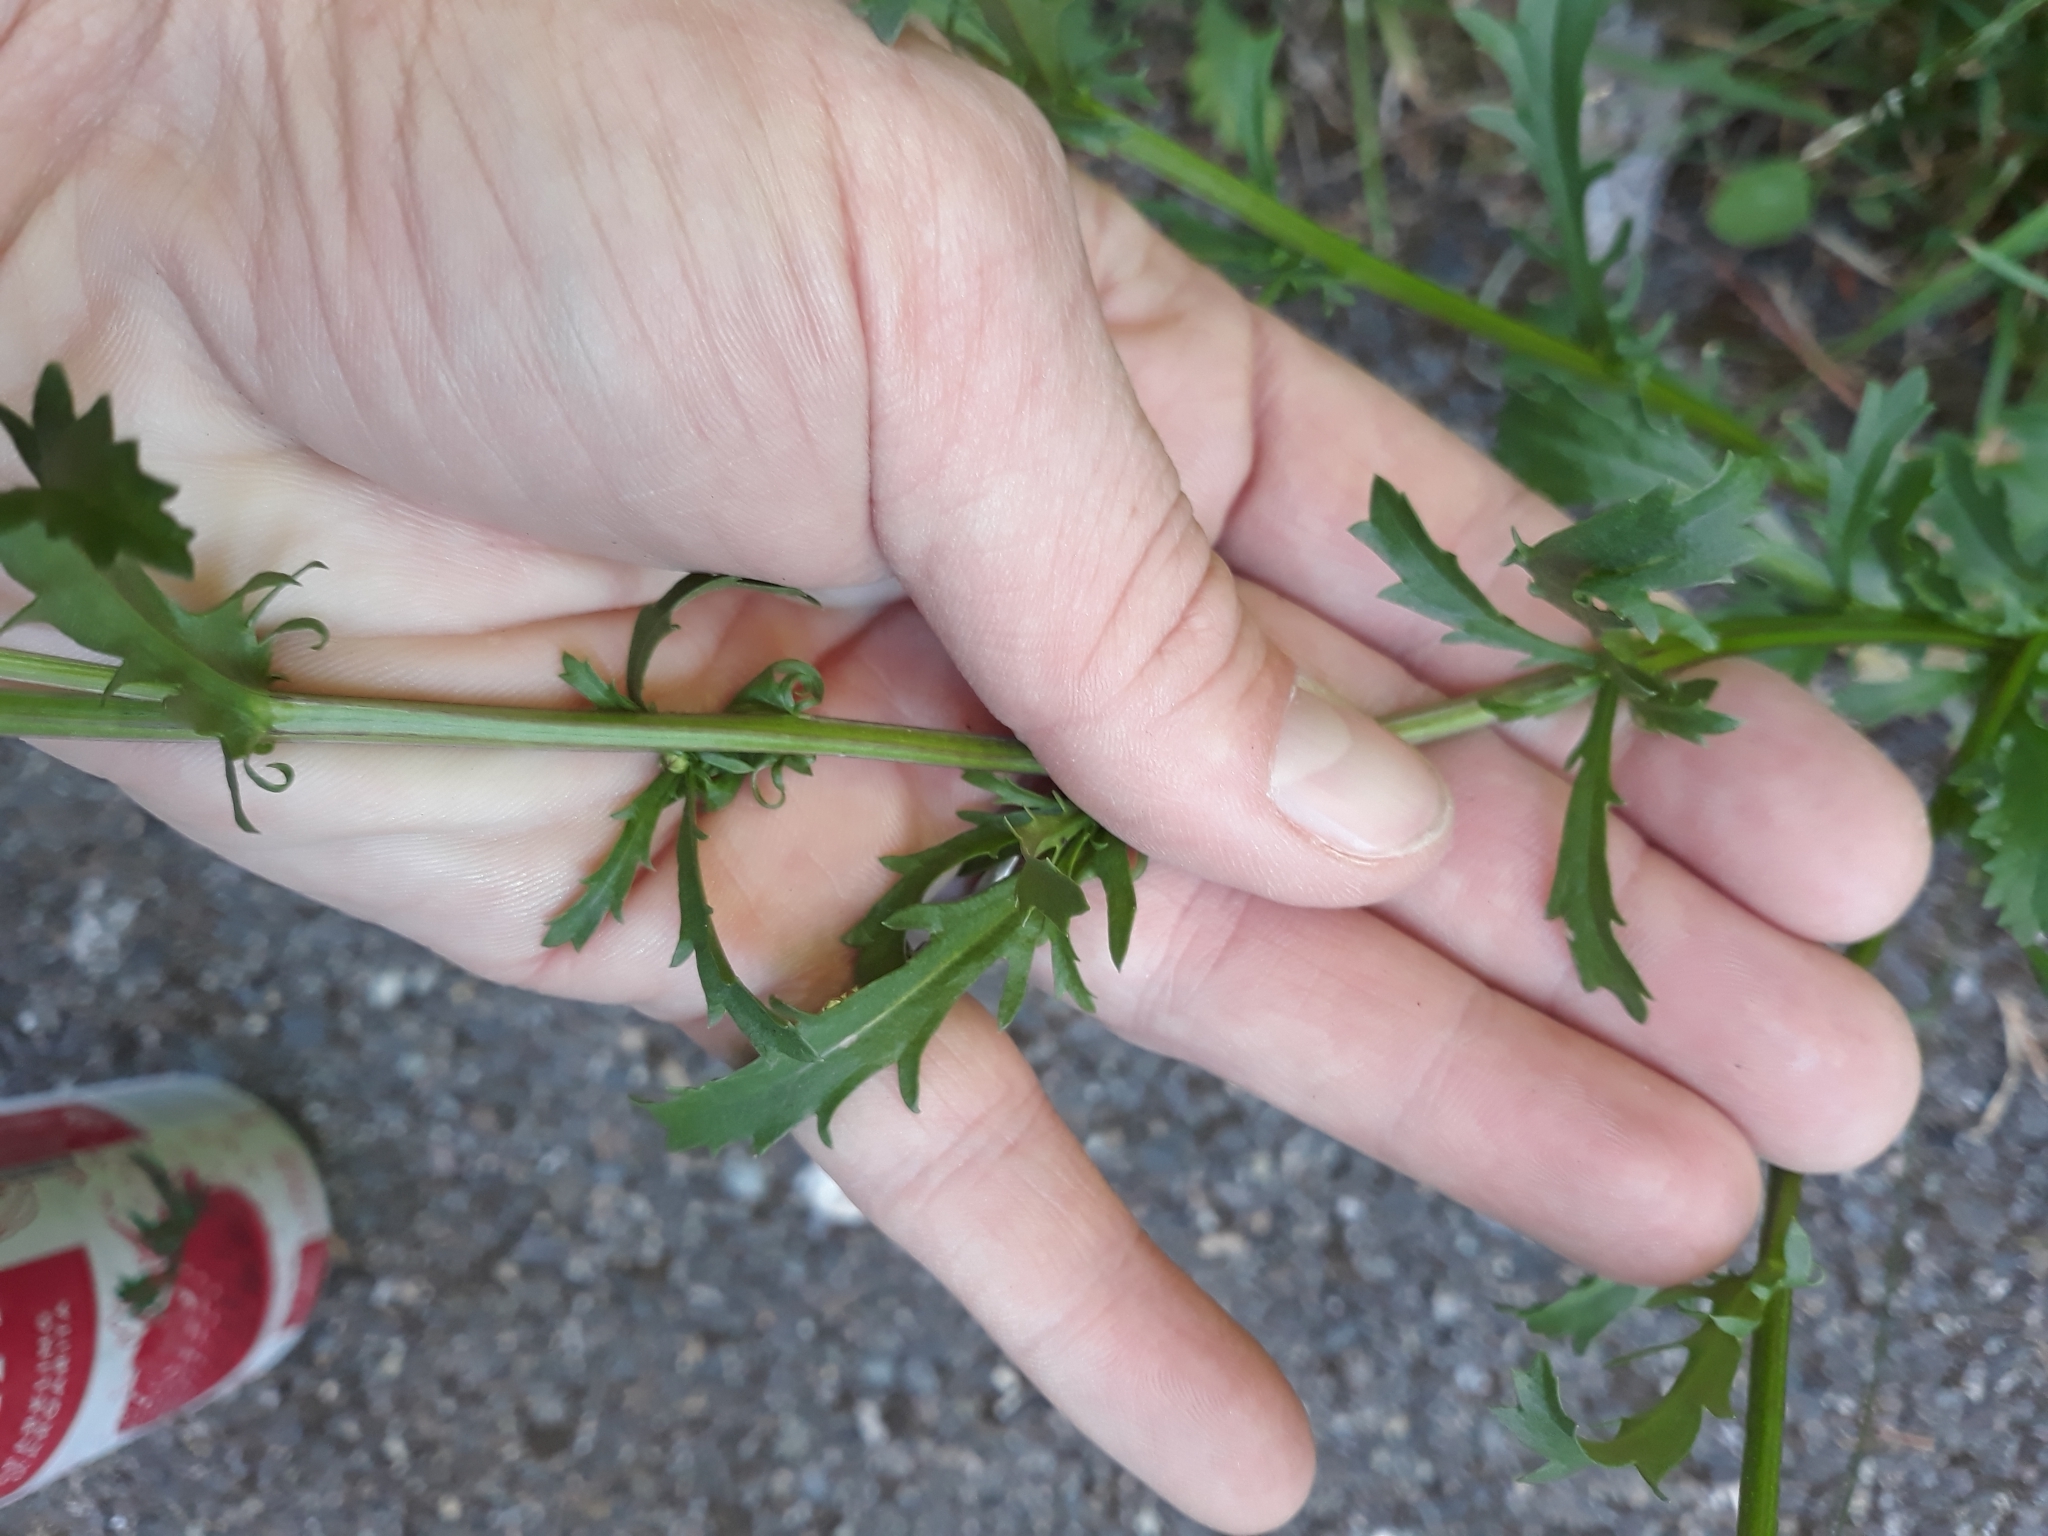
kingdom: Plantae
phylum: Tracheophyta
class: Magnoliopsida
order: Asterales
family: Asteraceae
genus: Leucanthemum
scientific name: Leucanthemum vulgare
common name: Oxeye daisy
